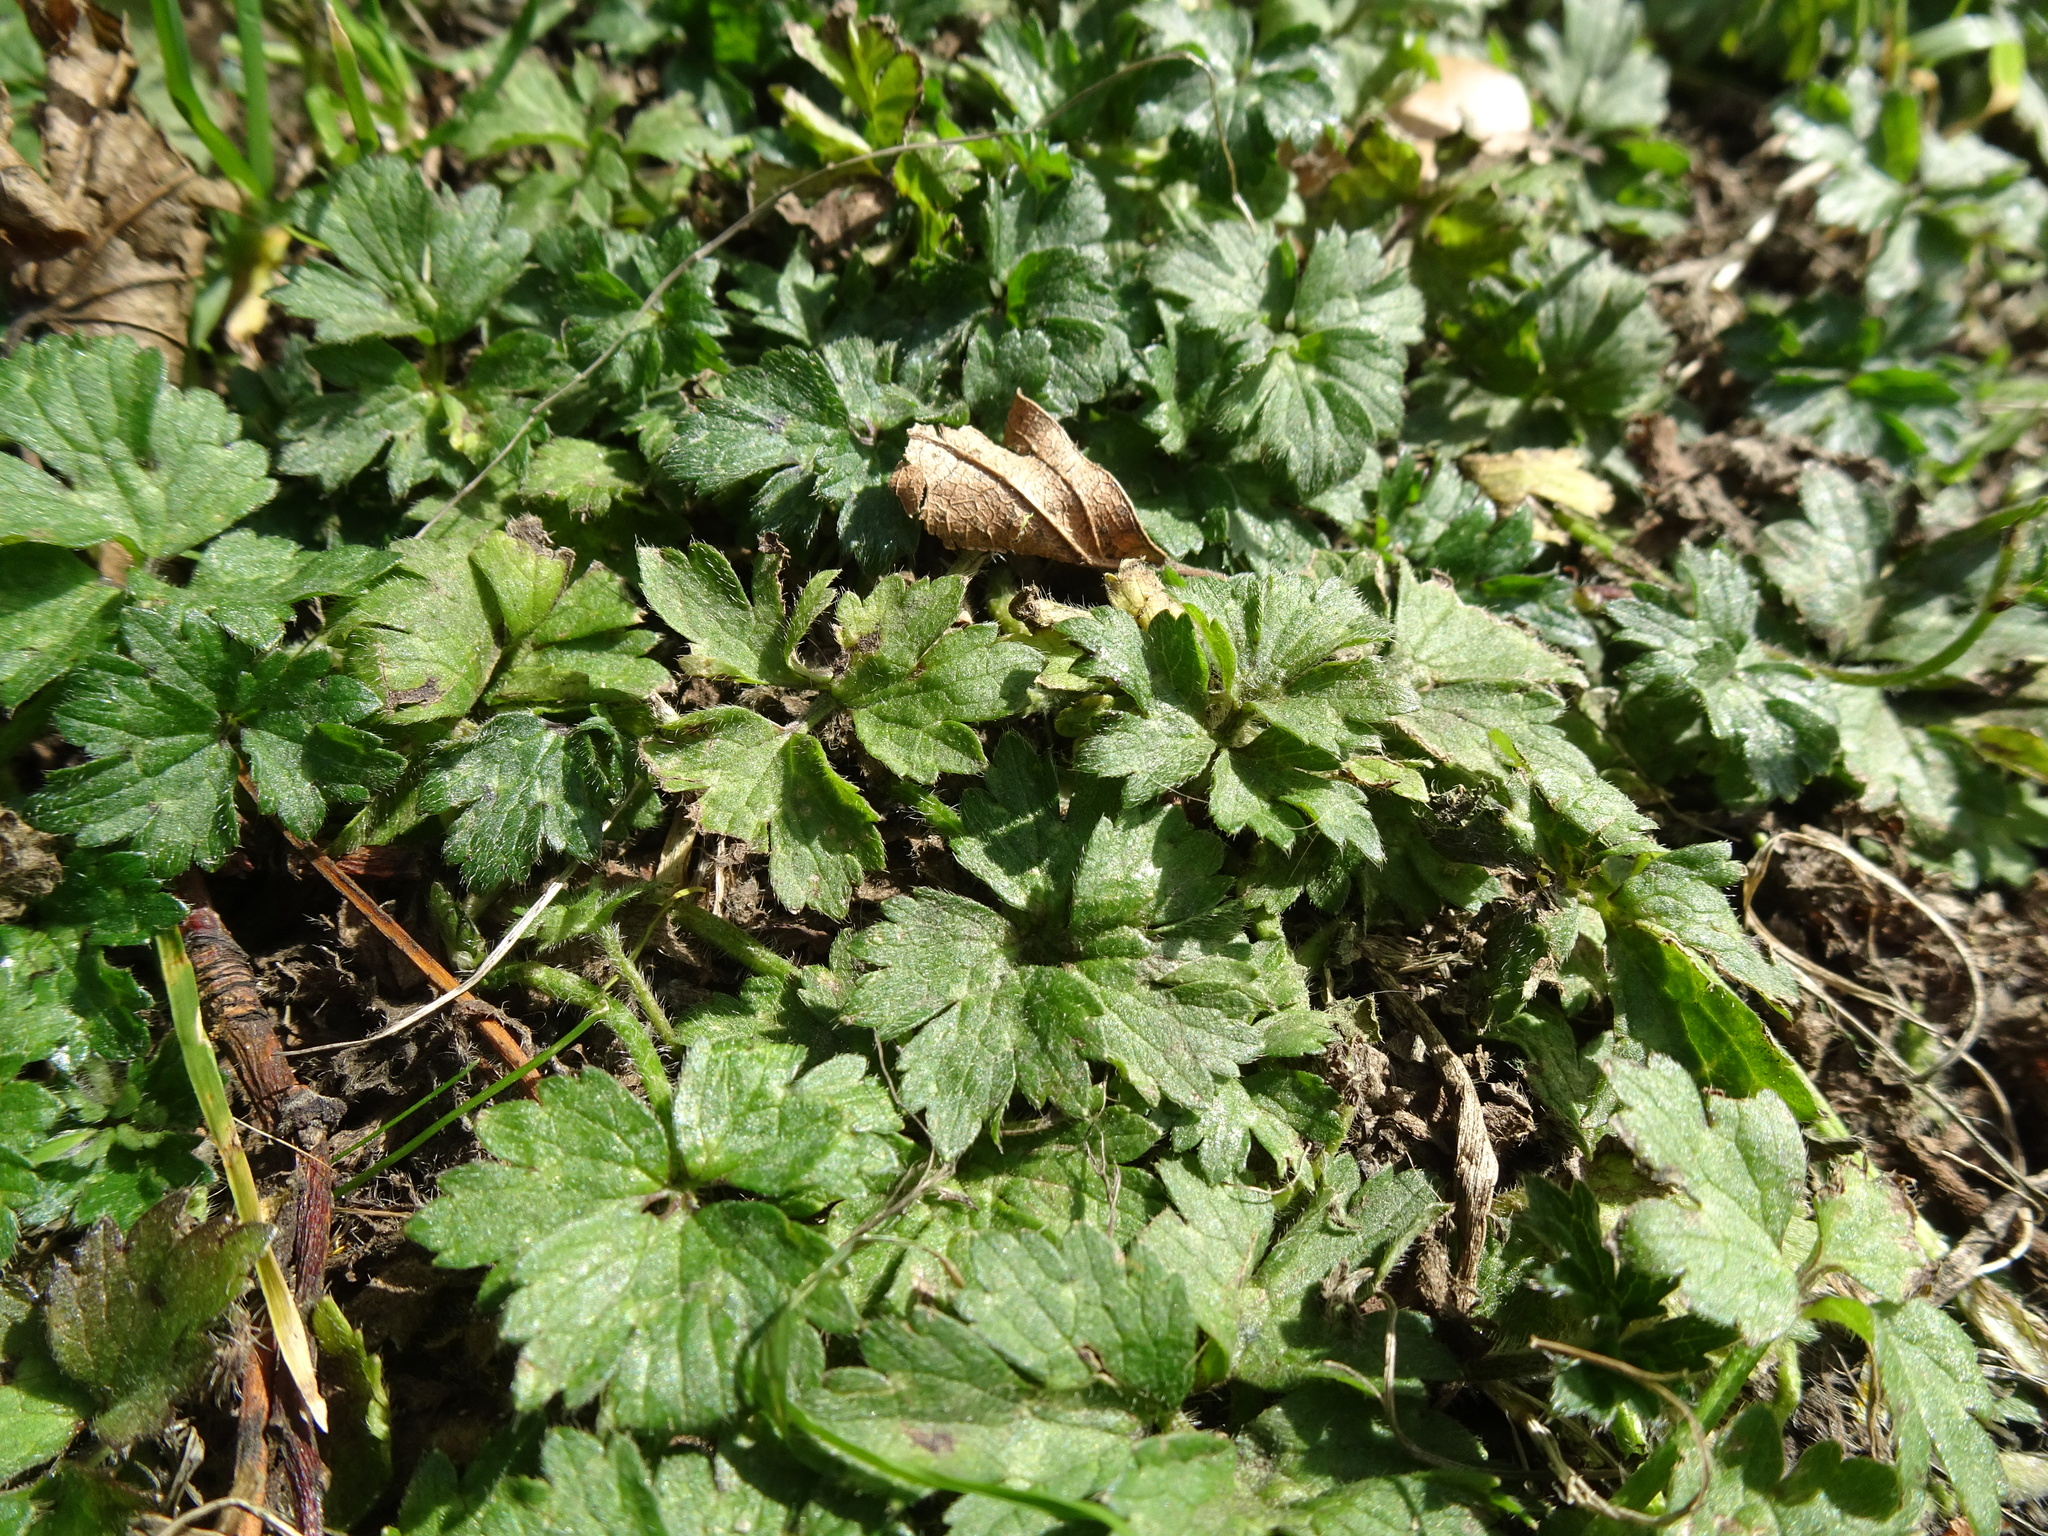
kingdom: Plantae
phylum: Tracheophyta
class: Magnoliopsida
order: Ranunculales
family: Ranunculaceae
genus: Ranunculus
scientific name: Ranunculus repens
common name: Creeping buttercup
